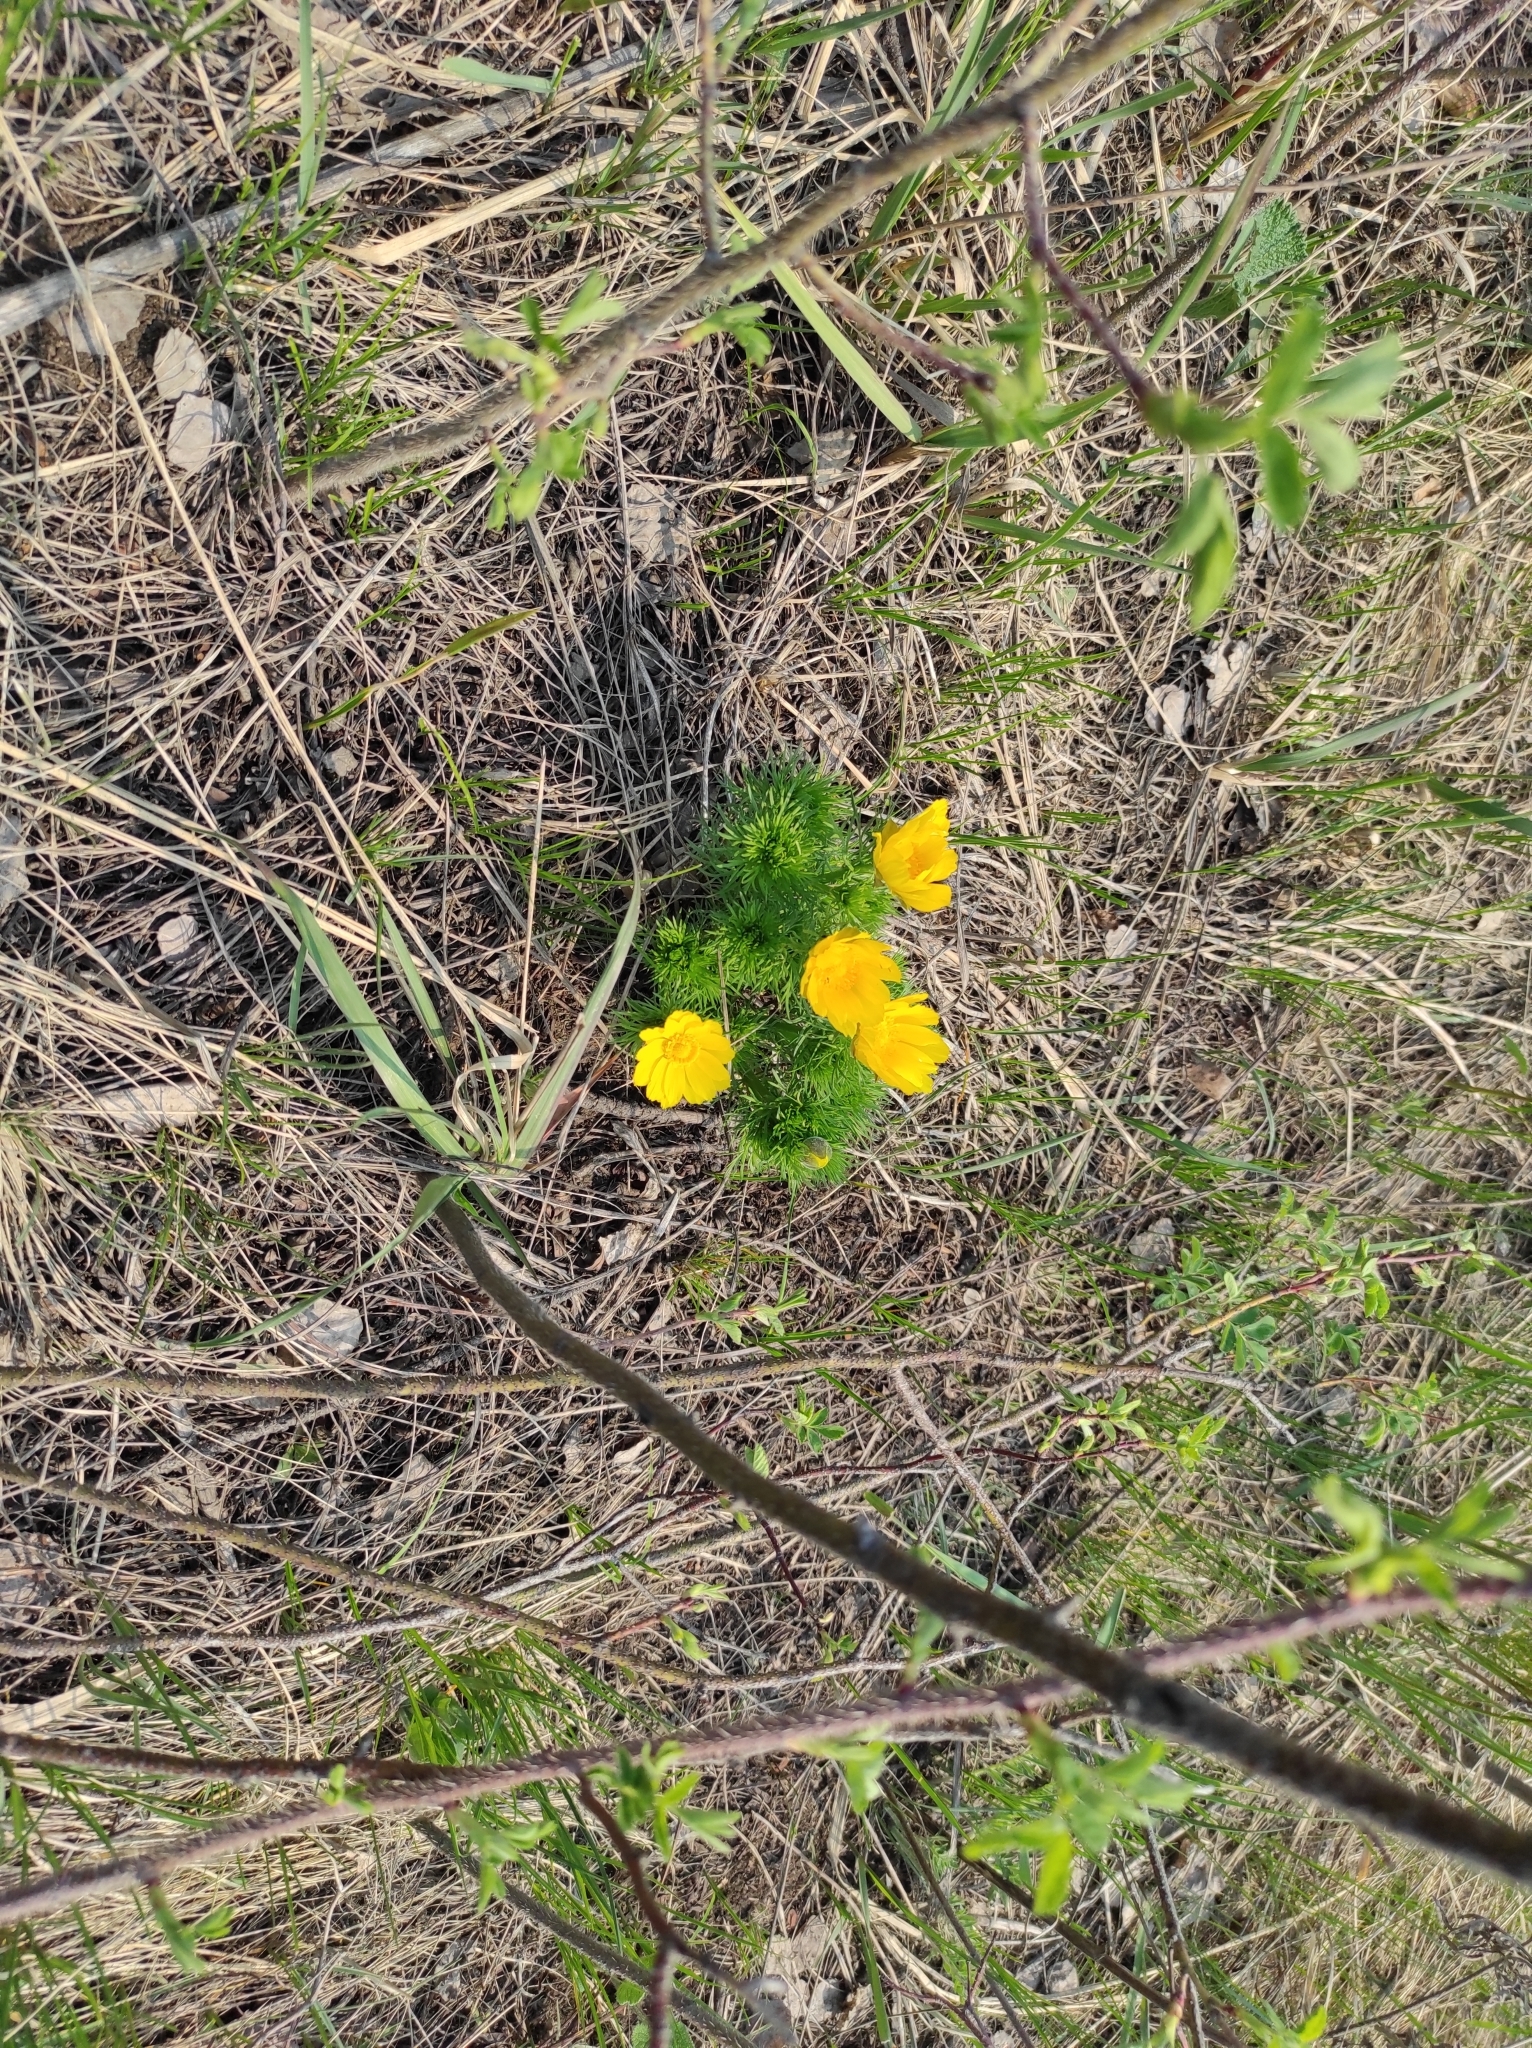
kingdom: Plantae
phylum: Tracheophyta
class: Magnoliopsida
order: Ranunculales
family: Ranunculaceae
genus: Adonis
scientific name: Adonis vernalis
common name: Yellow pheasants-eye
